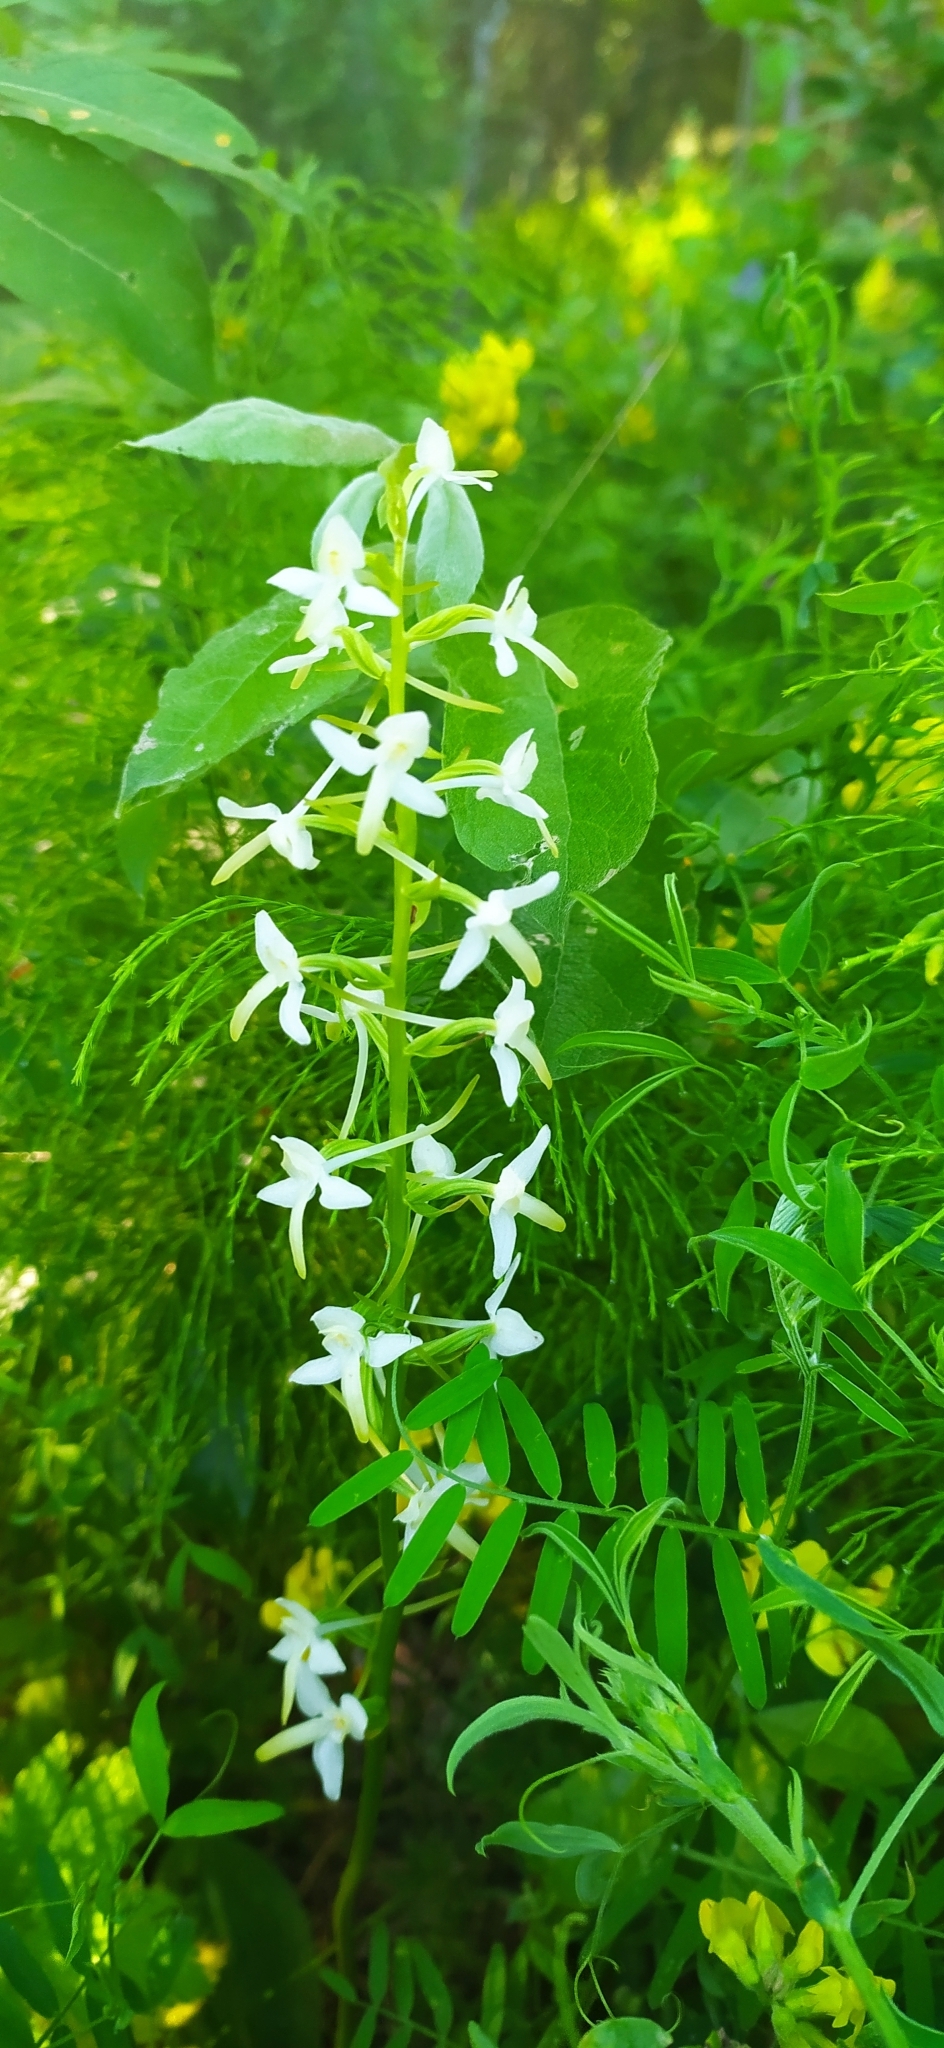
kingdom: Plantae
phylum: Tracheophyta
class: Liliopsida
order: Asparagales
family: Orchidaceae
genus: Platanthera
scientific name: Platanthera bifolia
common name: Lesser butterfly-orchid
